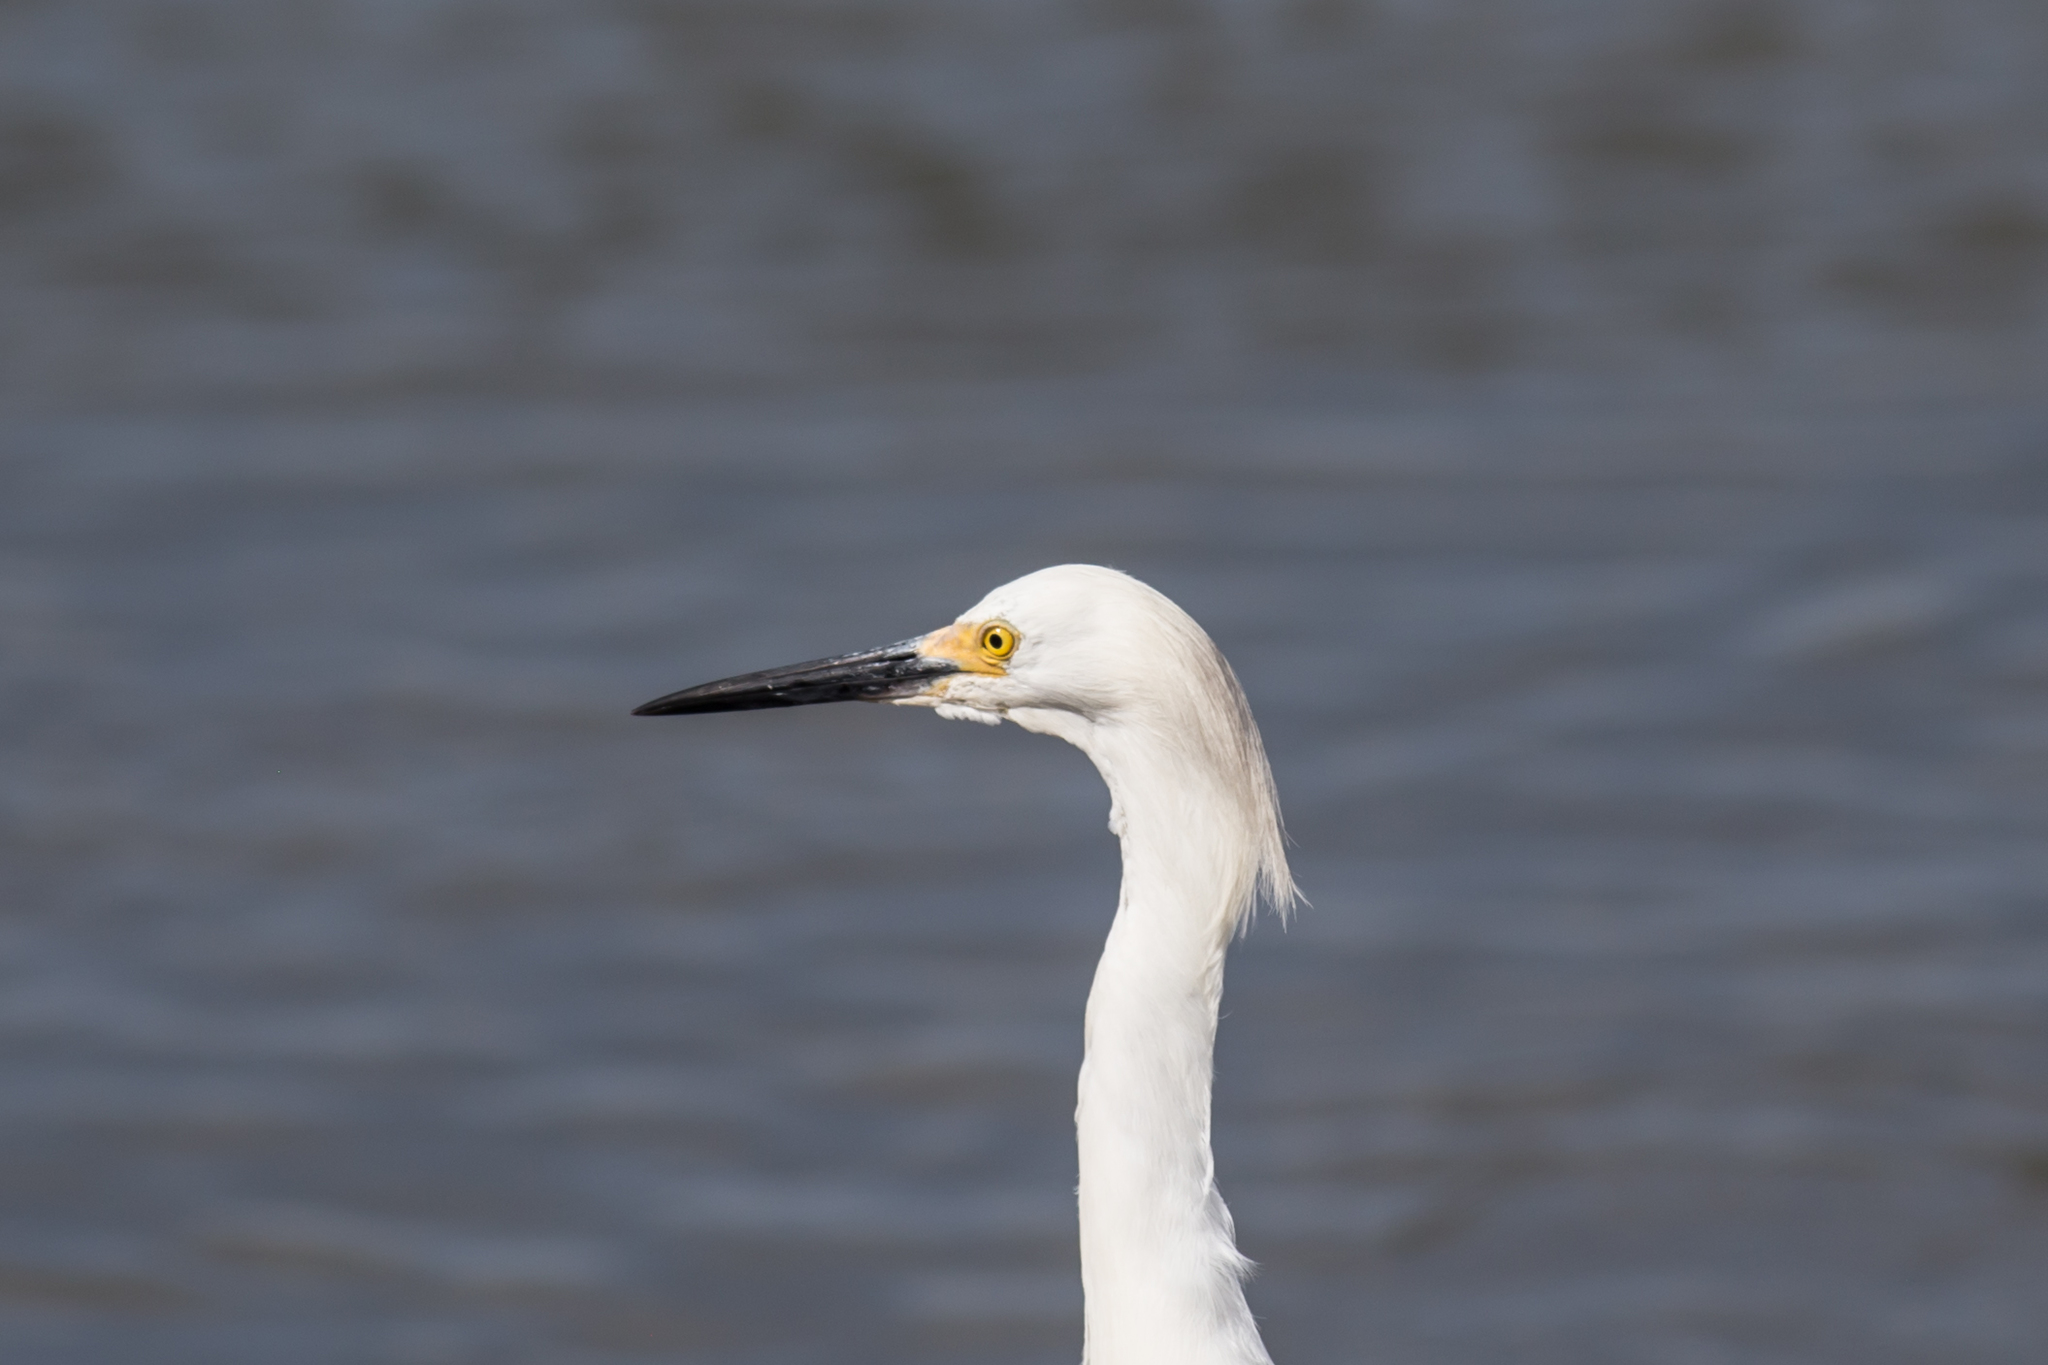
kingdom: Animalia
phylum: Chordata
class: Aves
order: Pelecaniformes
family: Ardeidae
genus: Egretta
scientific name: Egretta thula
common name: Snowy egret
